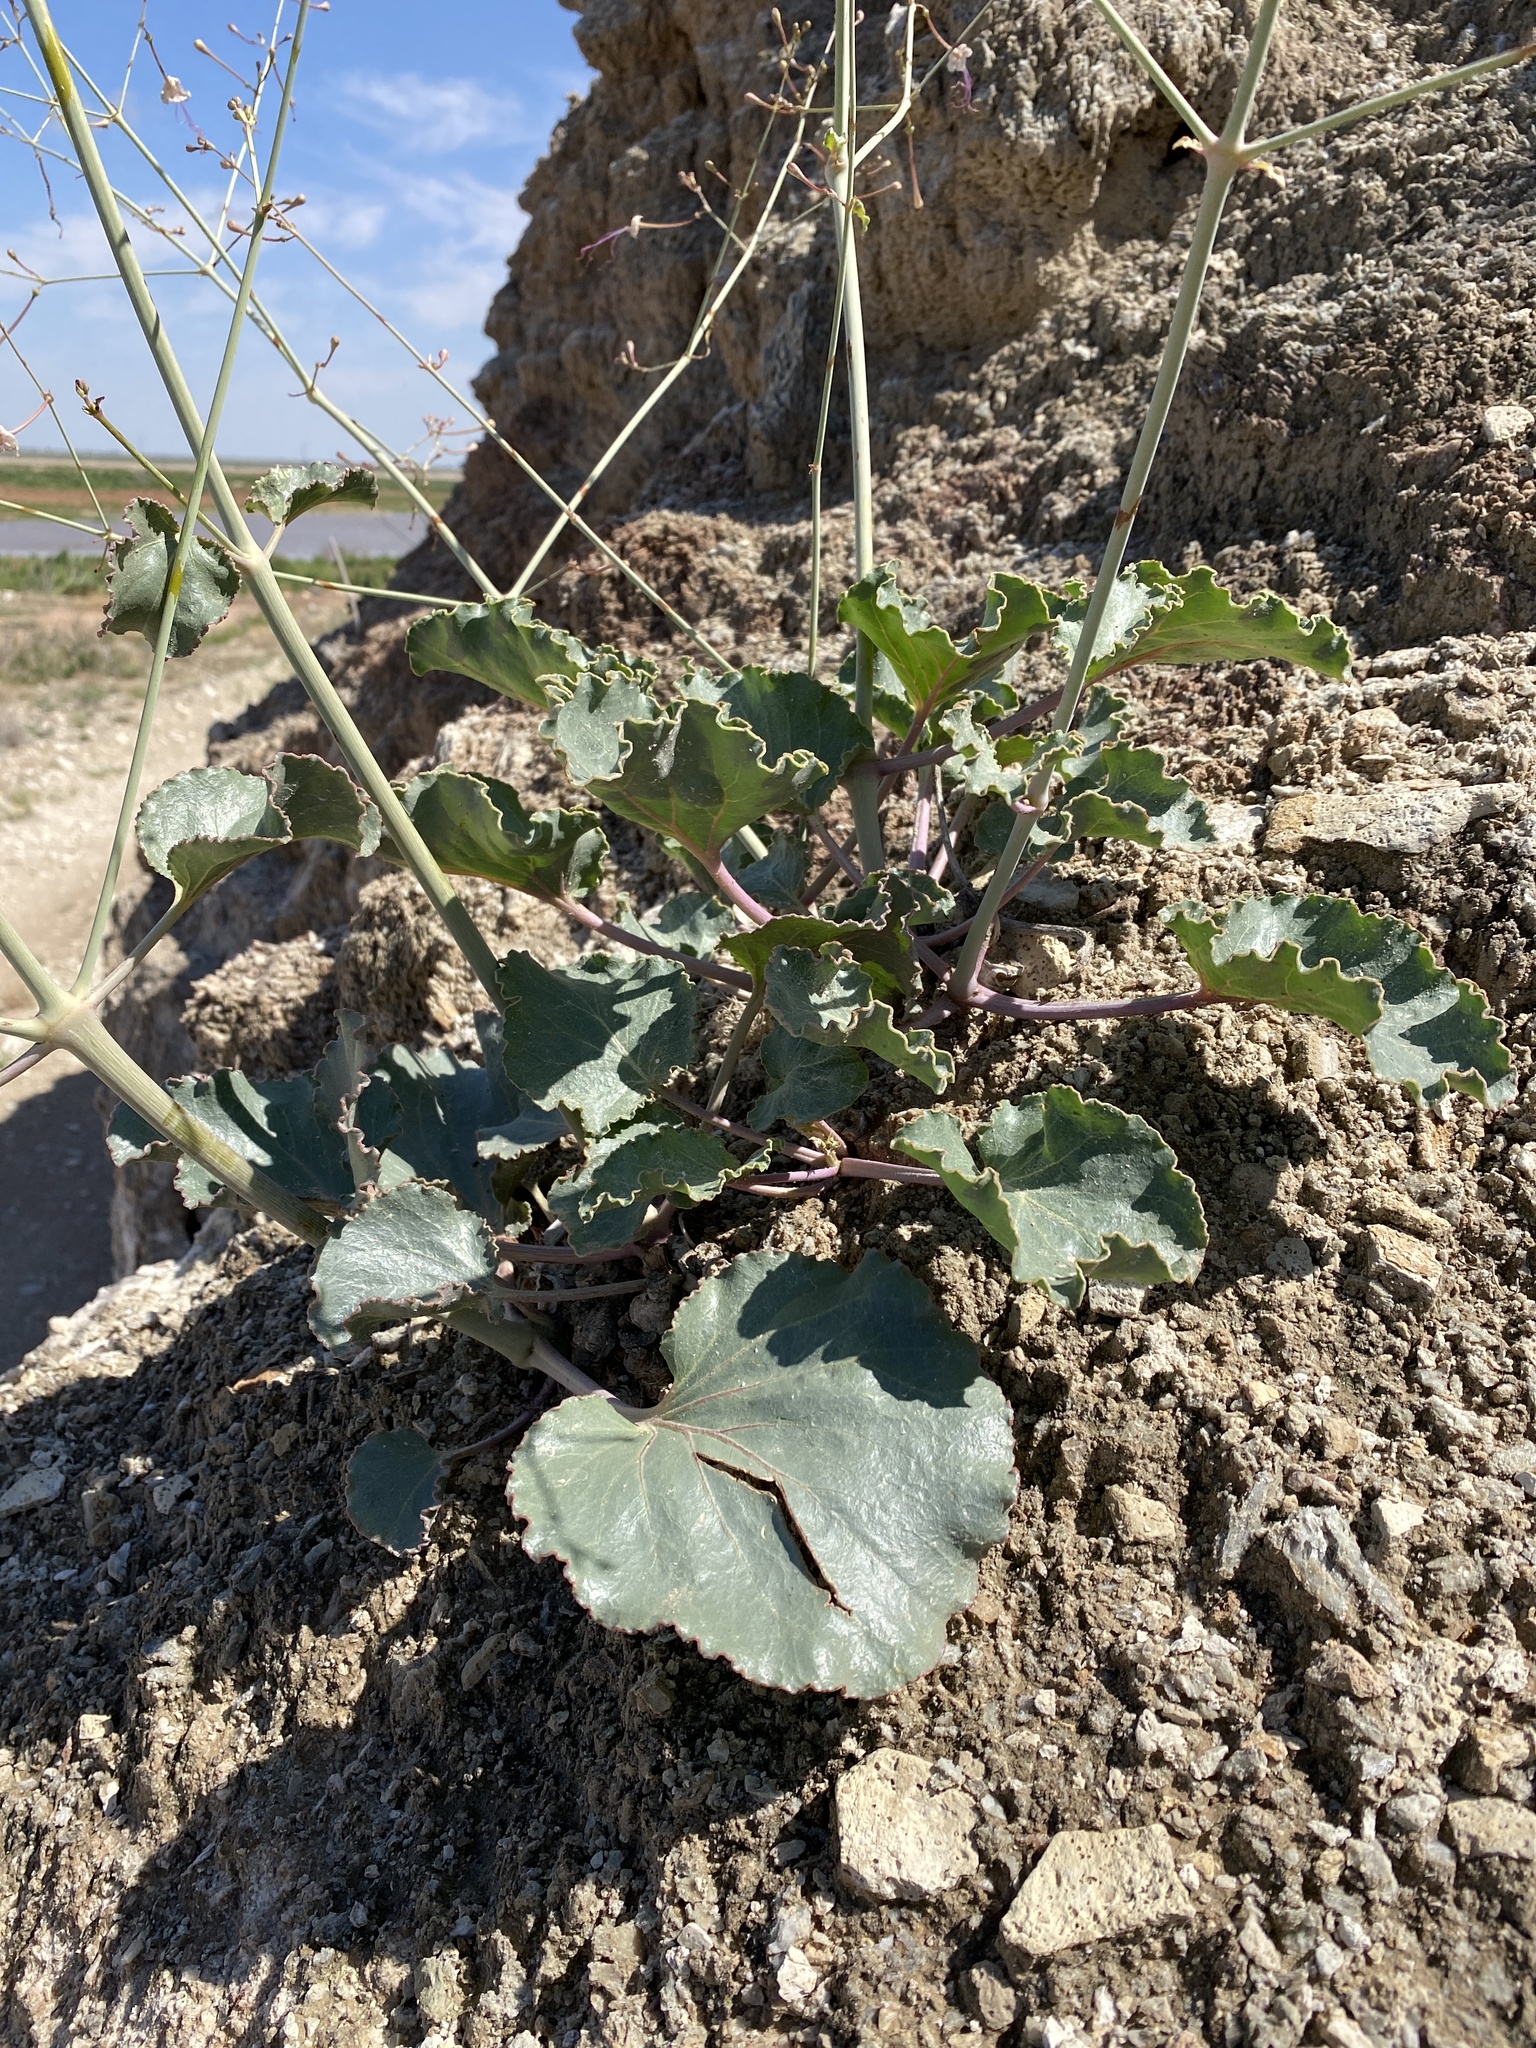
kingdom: Plantae
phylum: Tracheophyta
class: Magnoliopsida
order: Caryophyllales
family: Nyctaginaceae
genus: Anulocaulis
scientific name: Anulocaulis leiosolenus
